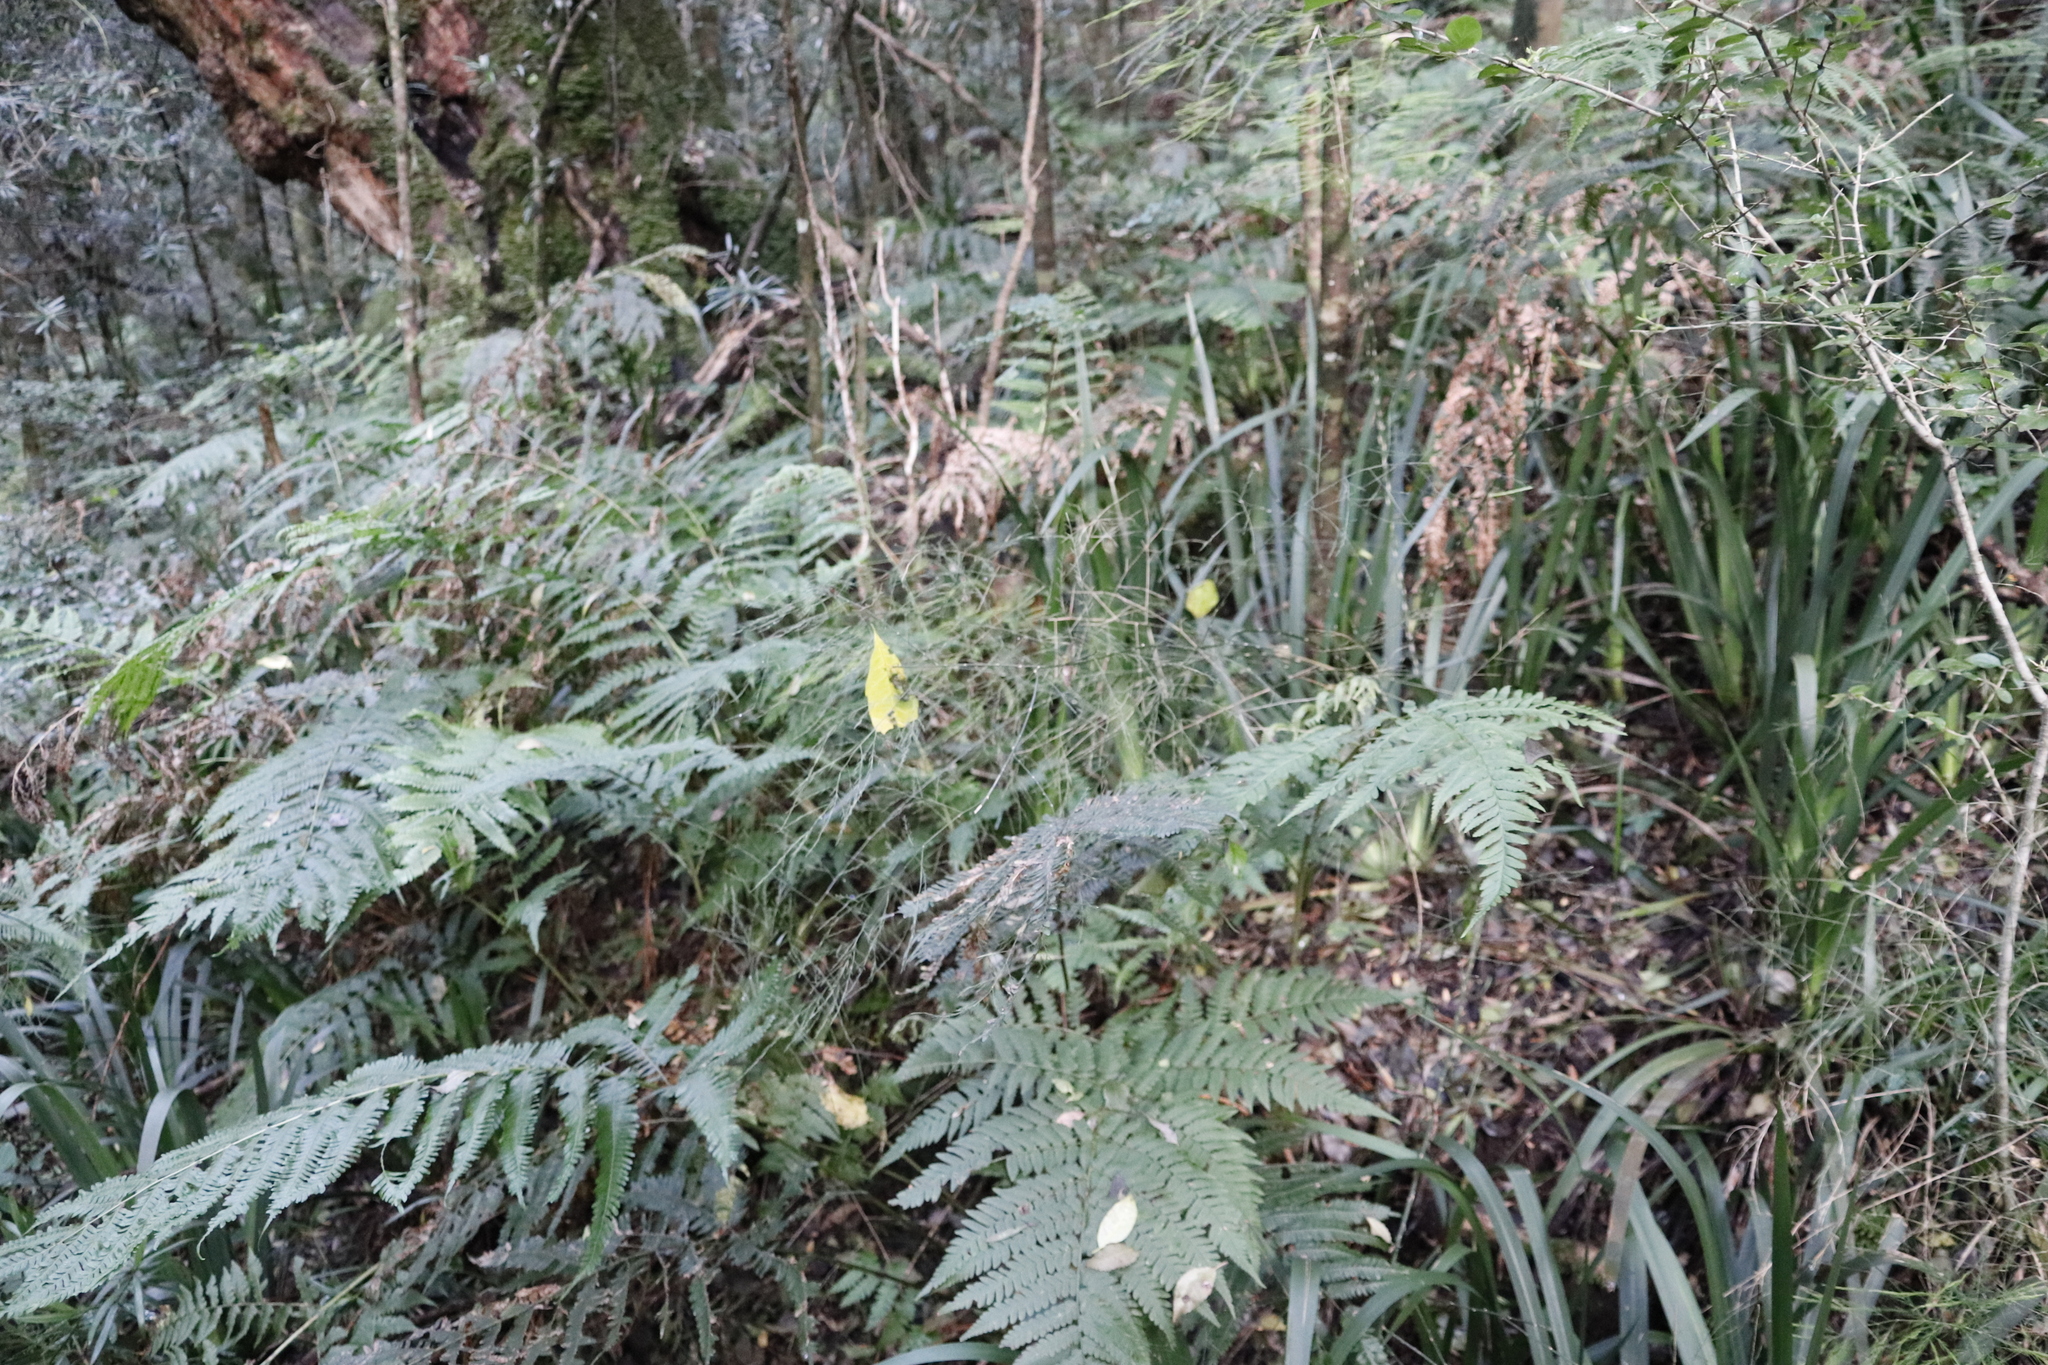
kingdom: Plantae
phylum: Tracheophyta
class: Liliopsida
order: Asparagales
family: Asparagaceae
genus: Asparagus
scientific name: Asparagus virgatus
